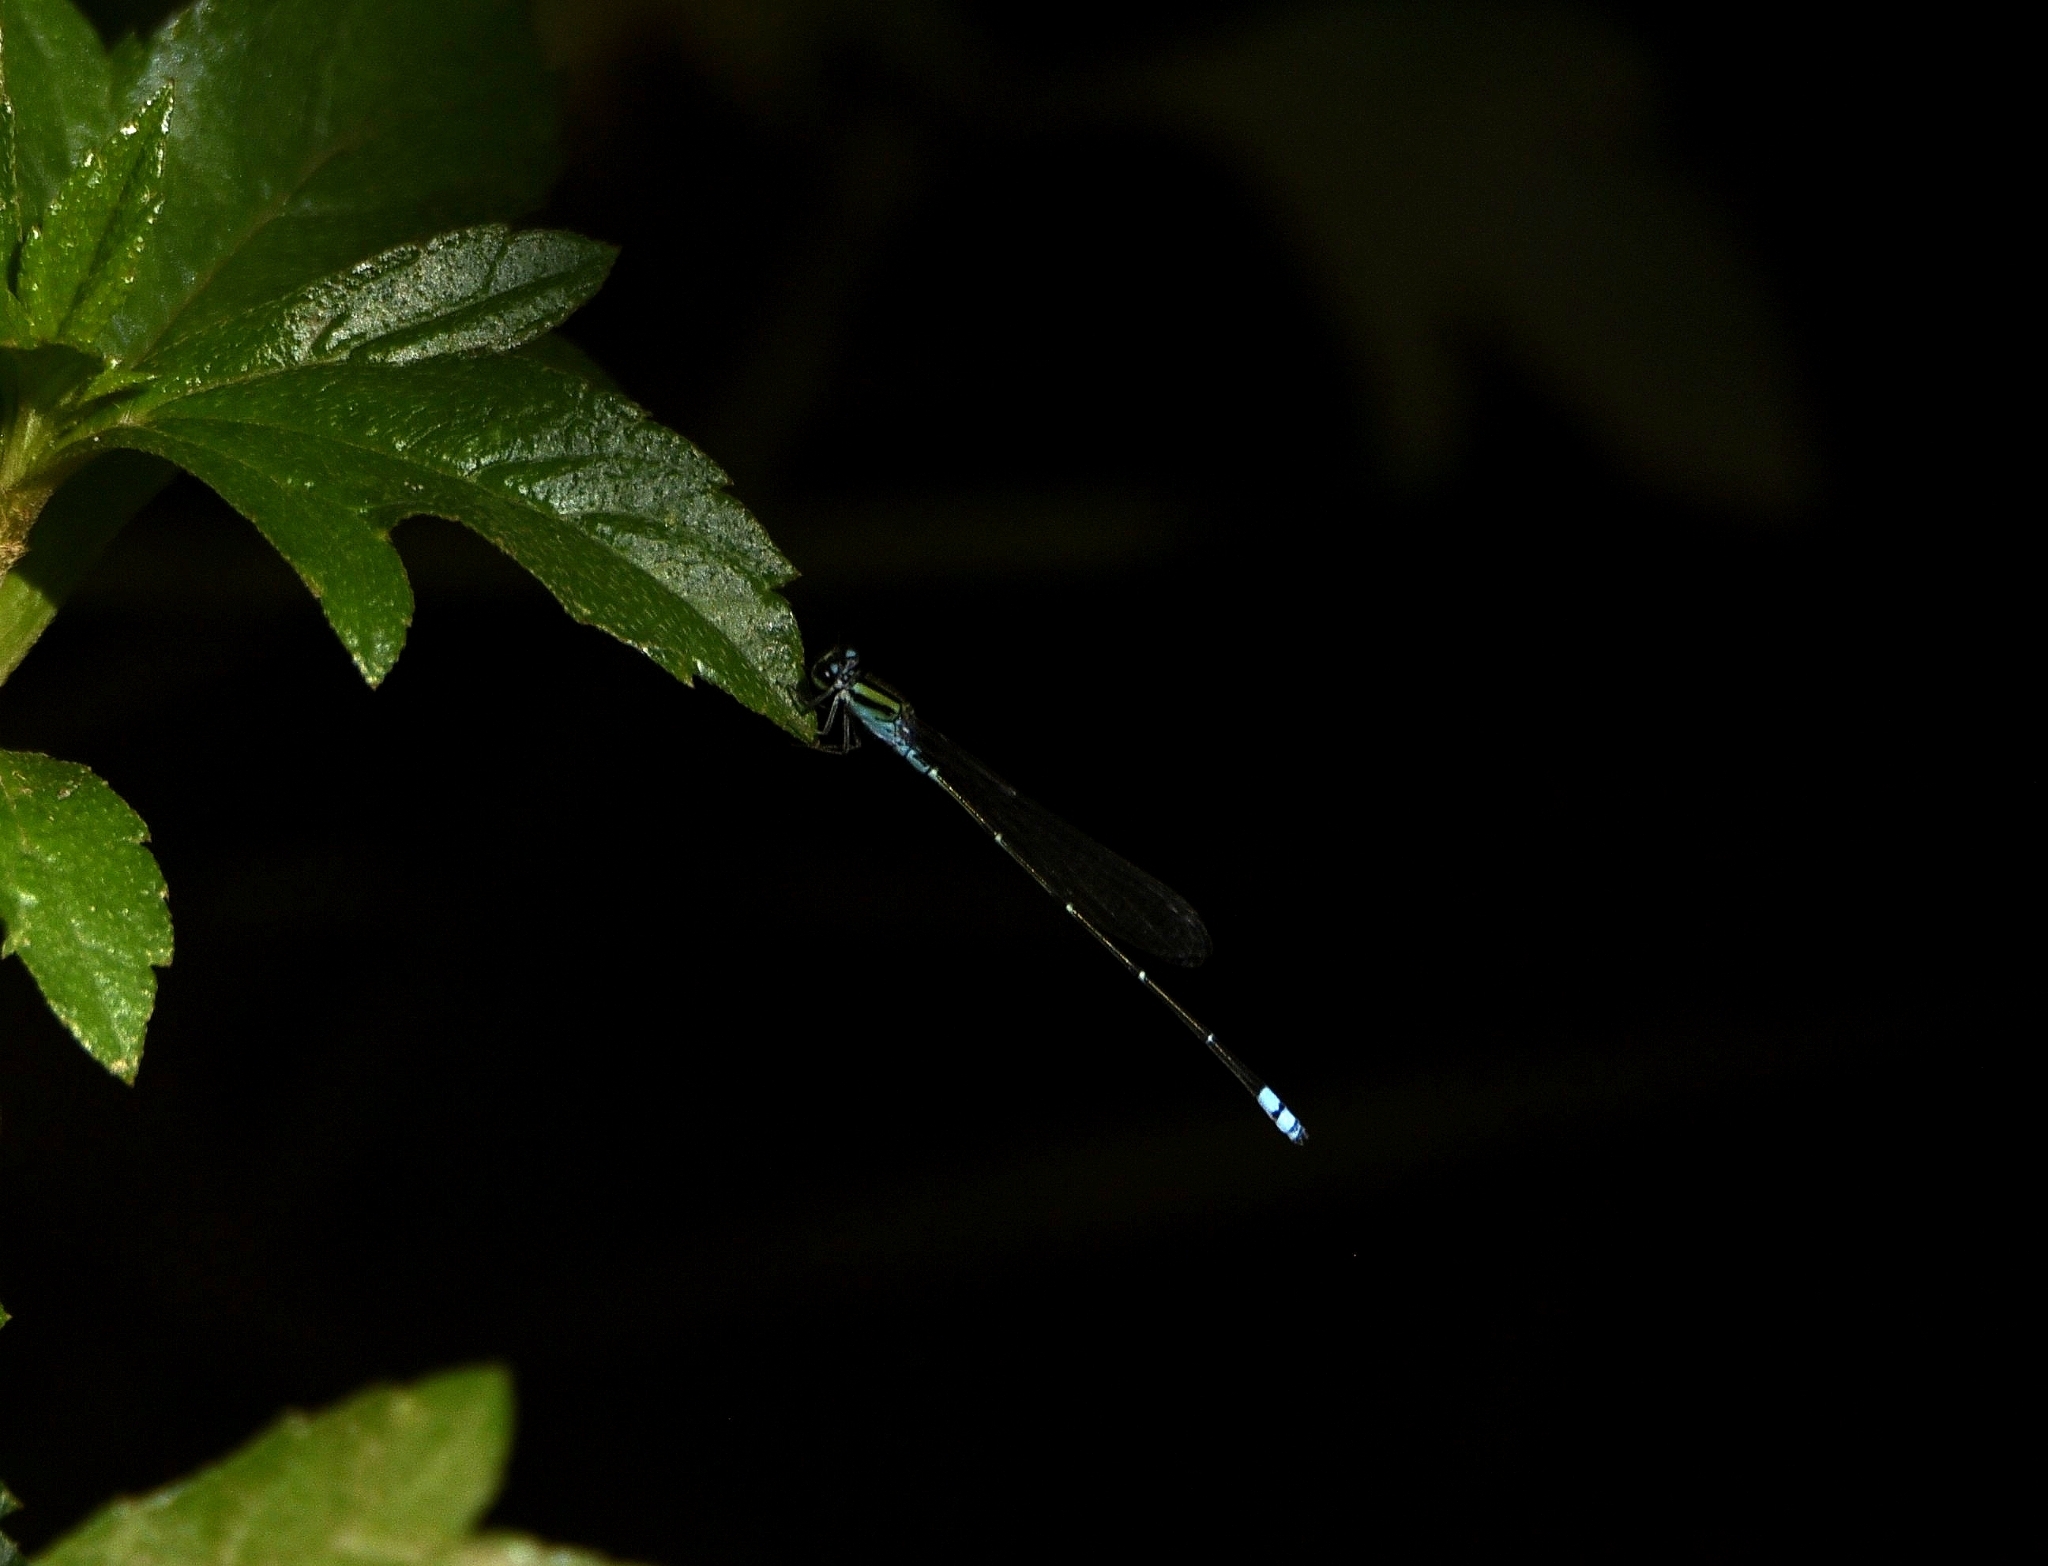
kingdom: Animalia
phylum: Arthropoda
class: Insecta
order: Odonata
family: Coenagrionidae
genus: Pseudagrion
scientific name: Pseudagrion indicum
